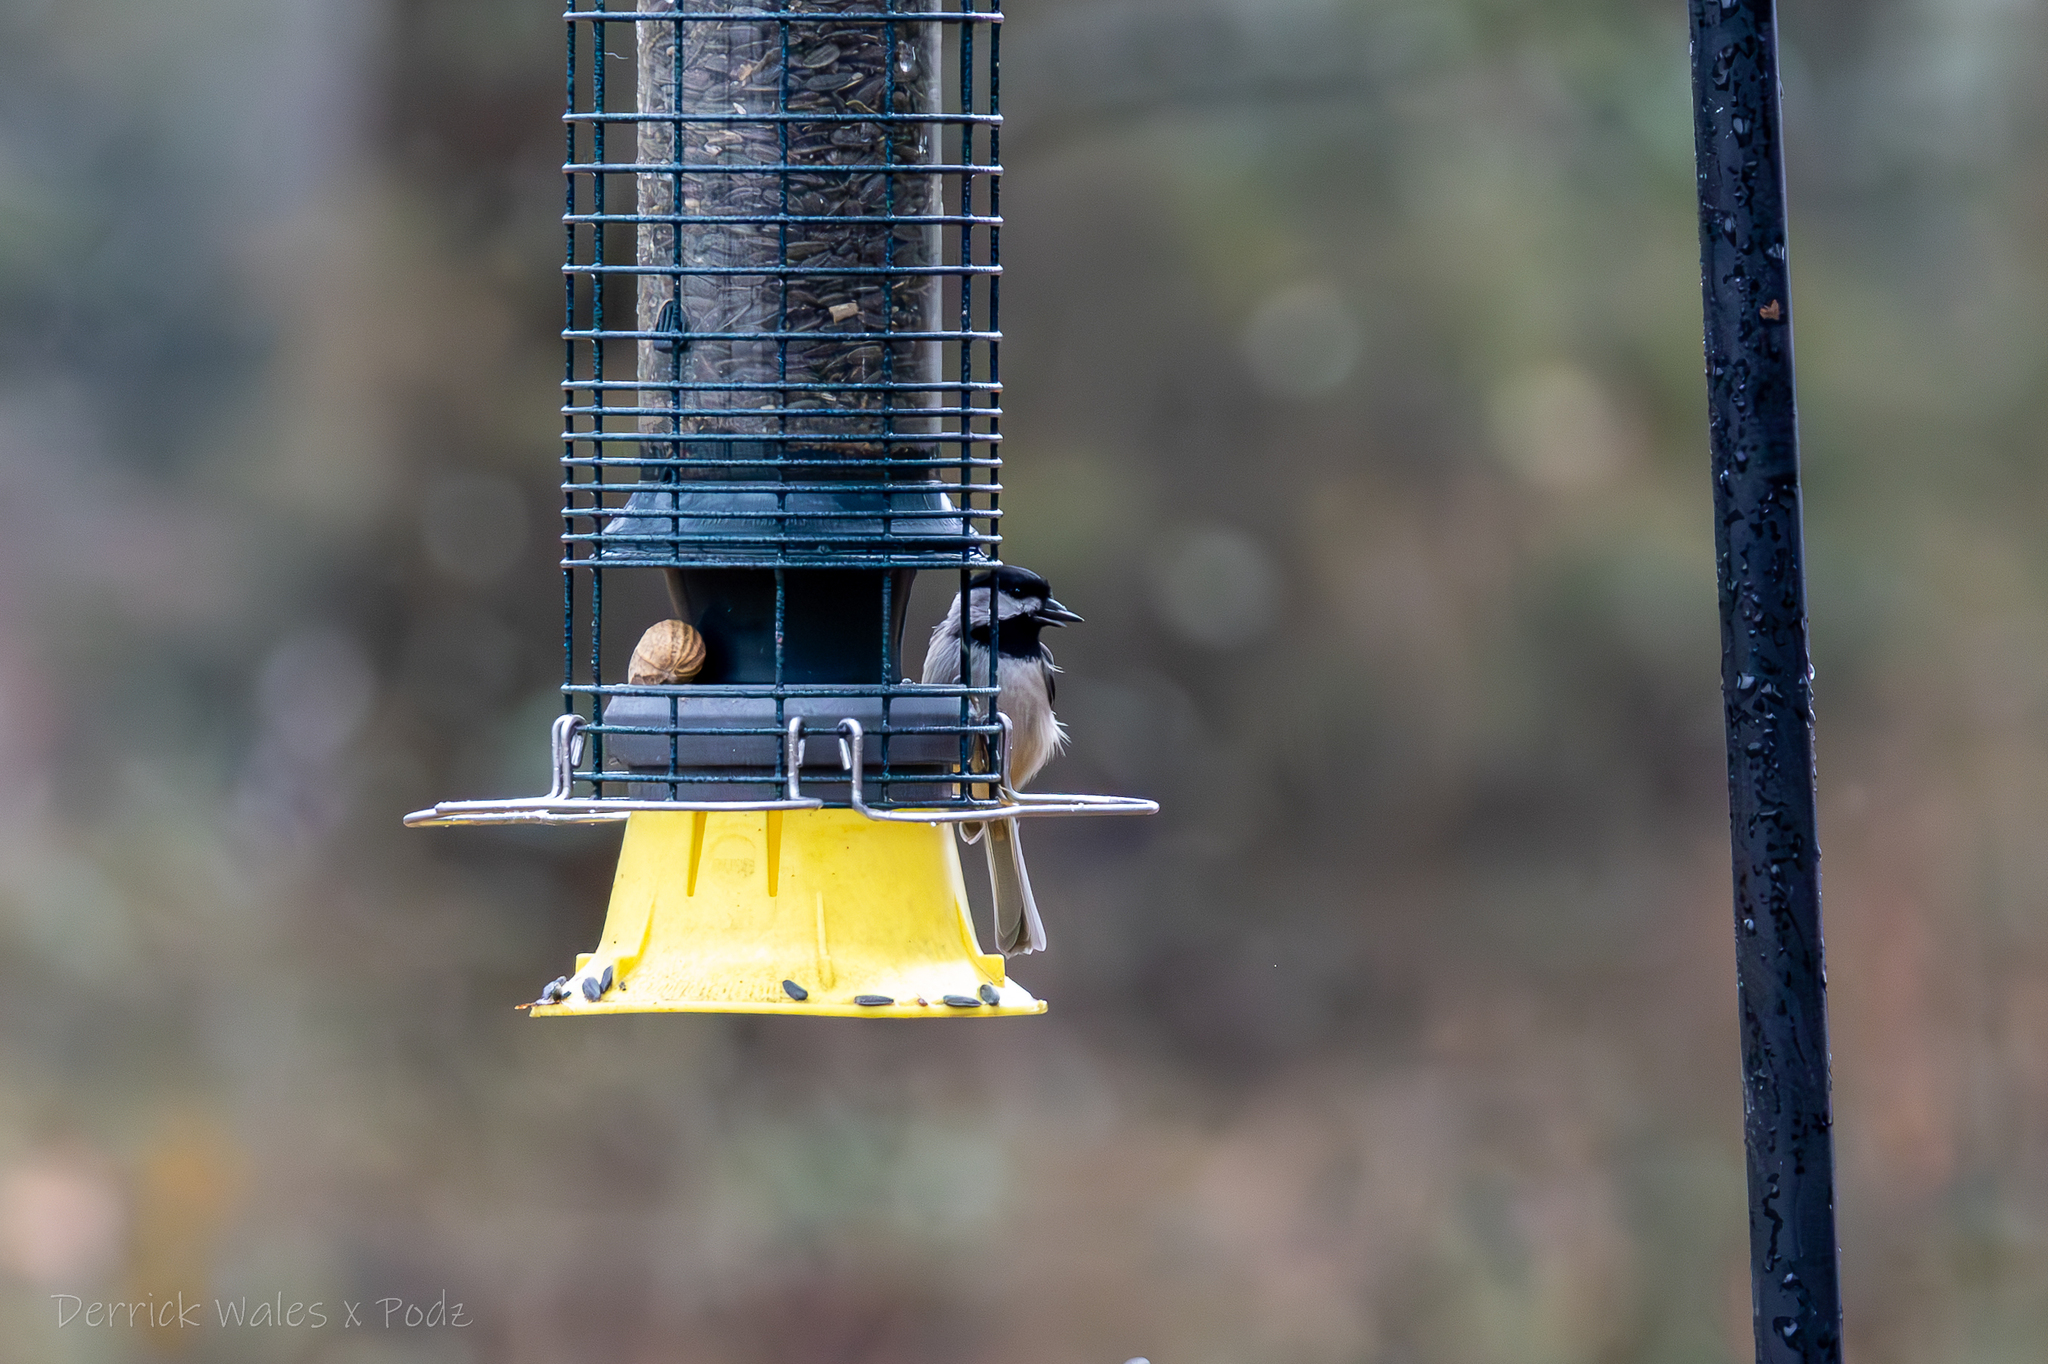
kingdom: Animalia
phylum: Chordata
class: Aves
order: Passeriformes
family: Paridae
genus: Poecile
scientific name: Poecile carolinensis
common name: Carolina chickadee
